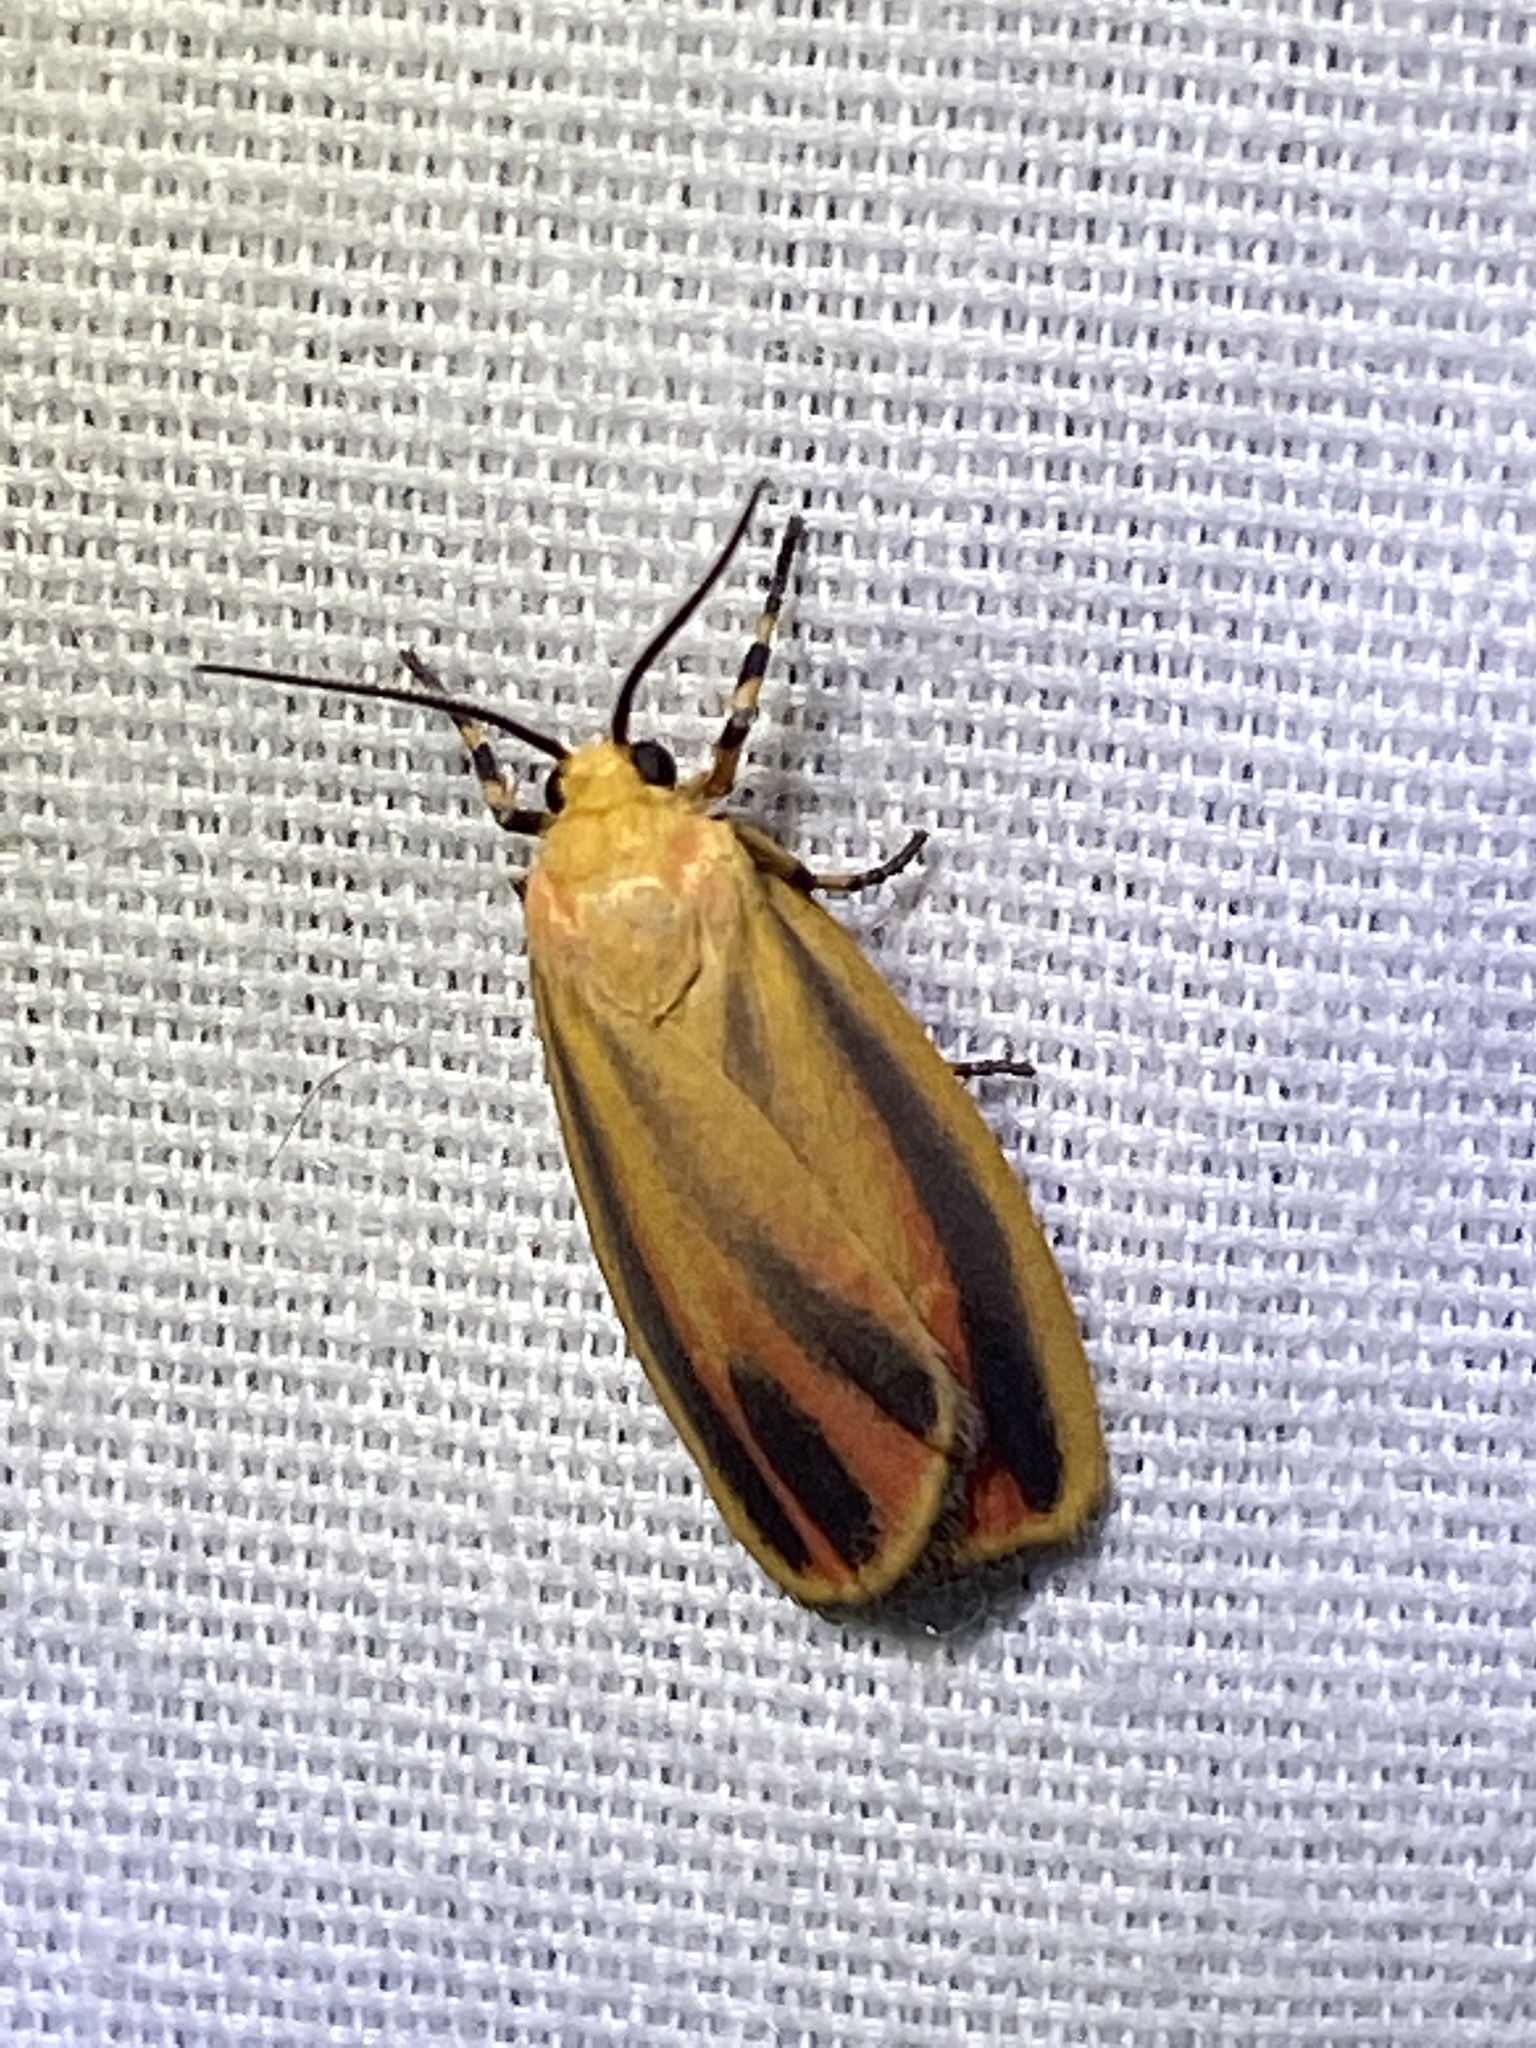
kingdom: Animalia
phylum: Arthropoda
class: Insecta
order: Lepidoptera
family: Erebidae
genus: Hypoprepia
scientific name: Hypoprepia fucosa
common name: Painted lichen moth
